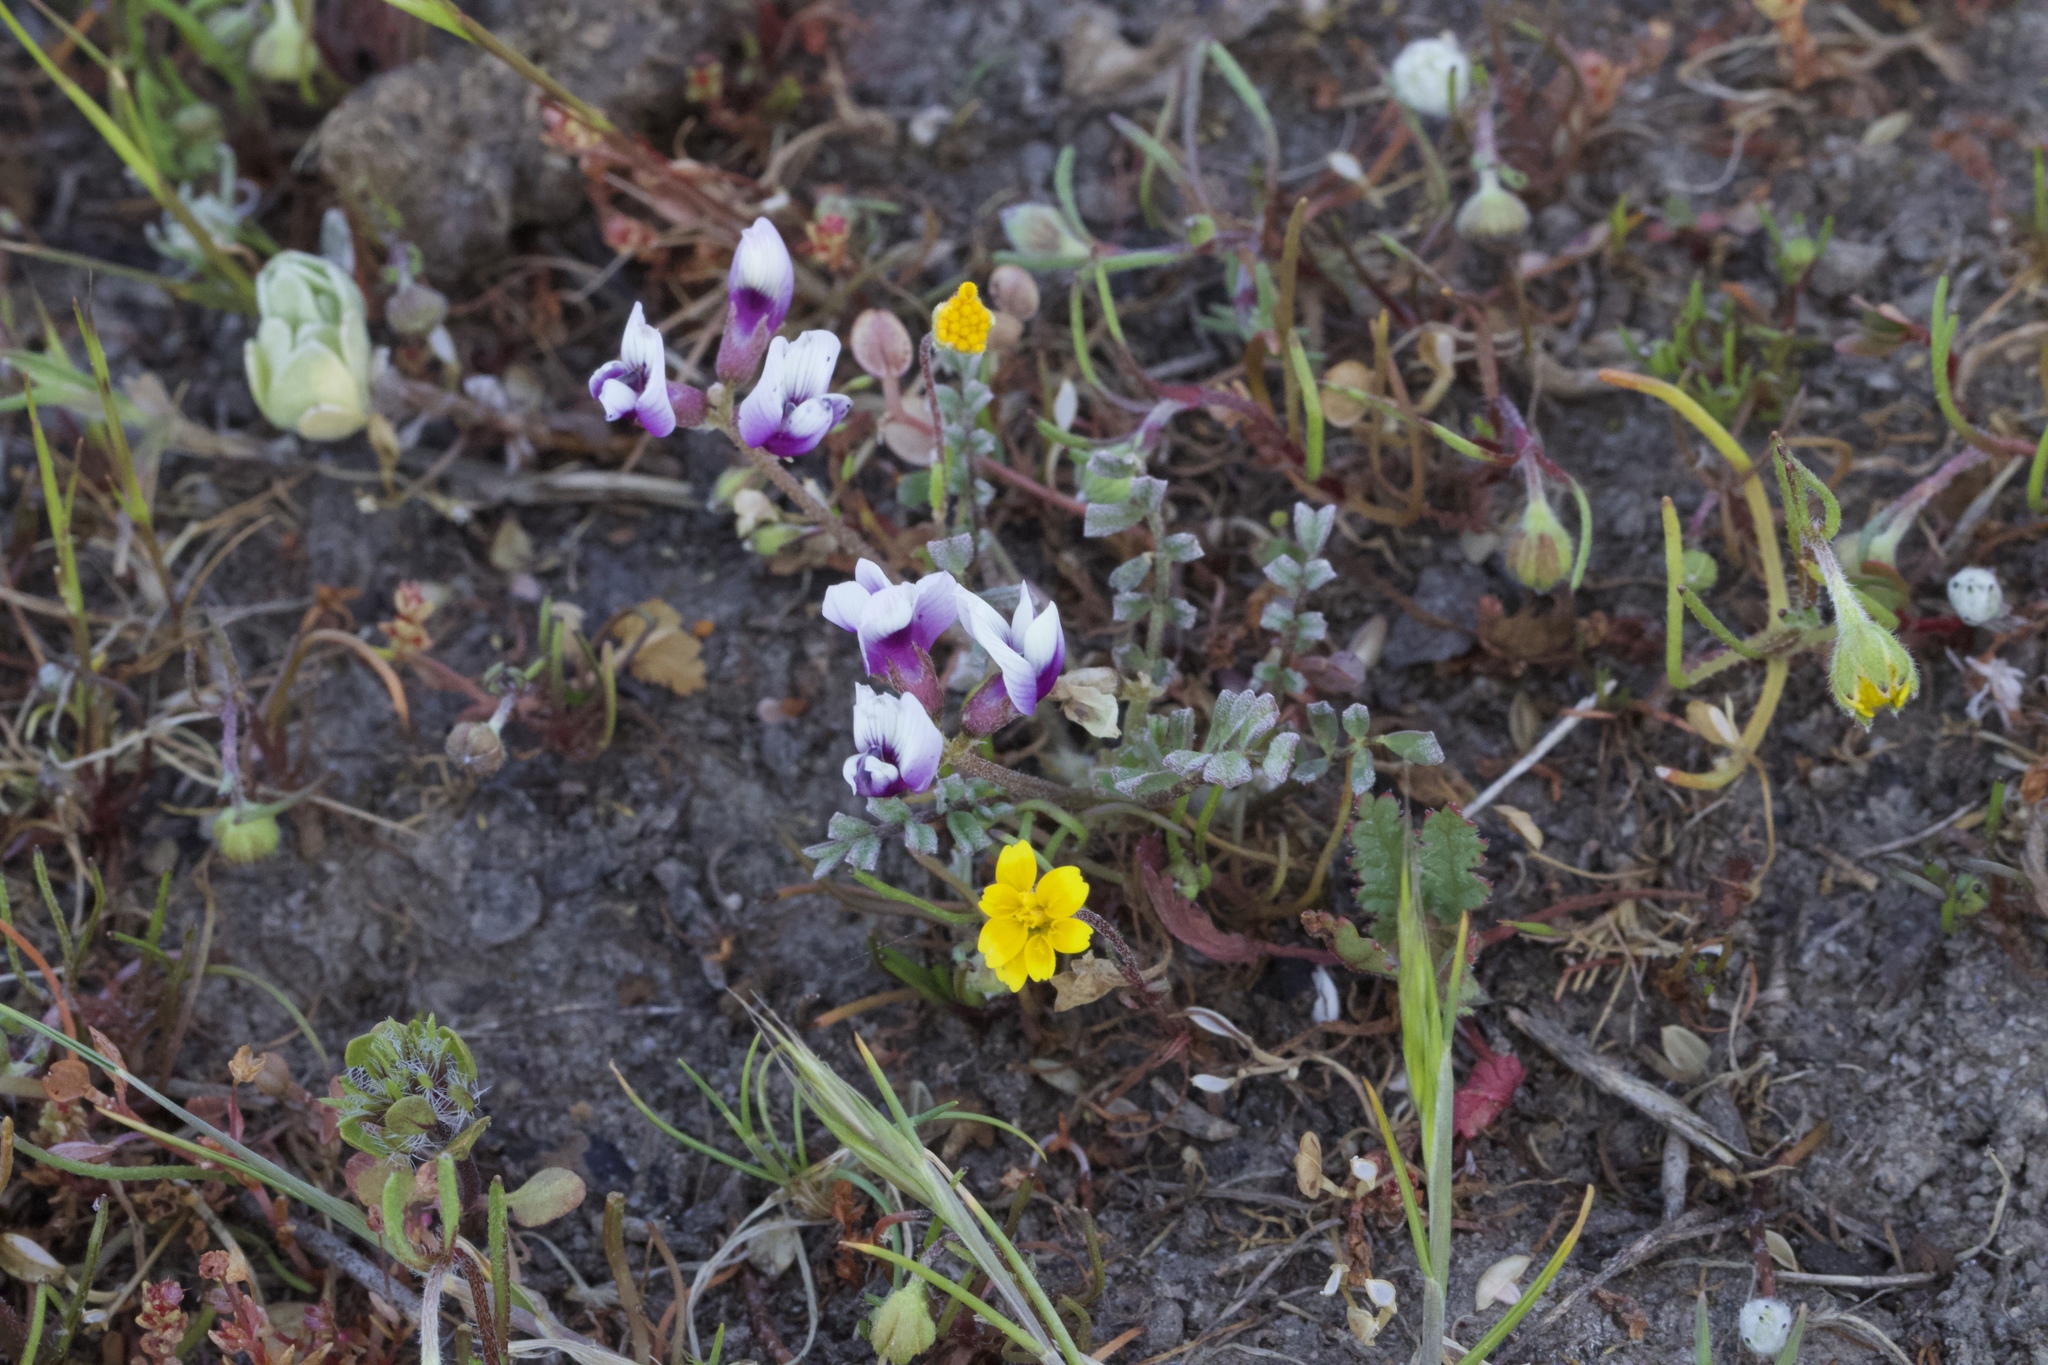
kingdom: Plantae
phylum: Tracheophyta
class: Magnoliopsida
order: Fabales
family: Fabaceae
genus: Astragalus
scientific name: Astragalus tener
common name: Gray slender milkvetch
